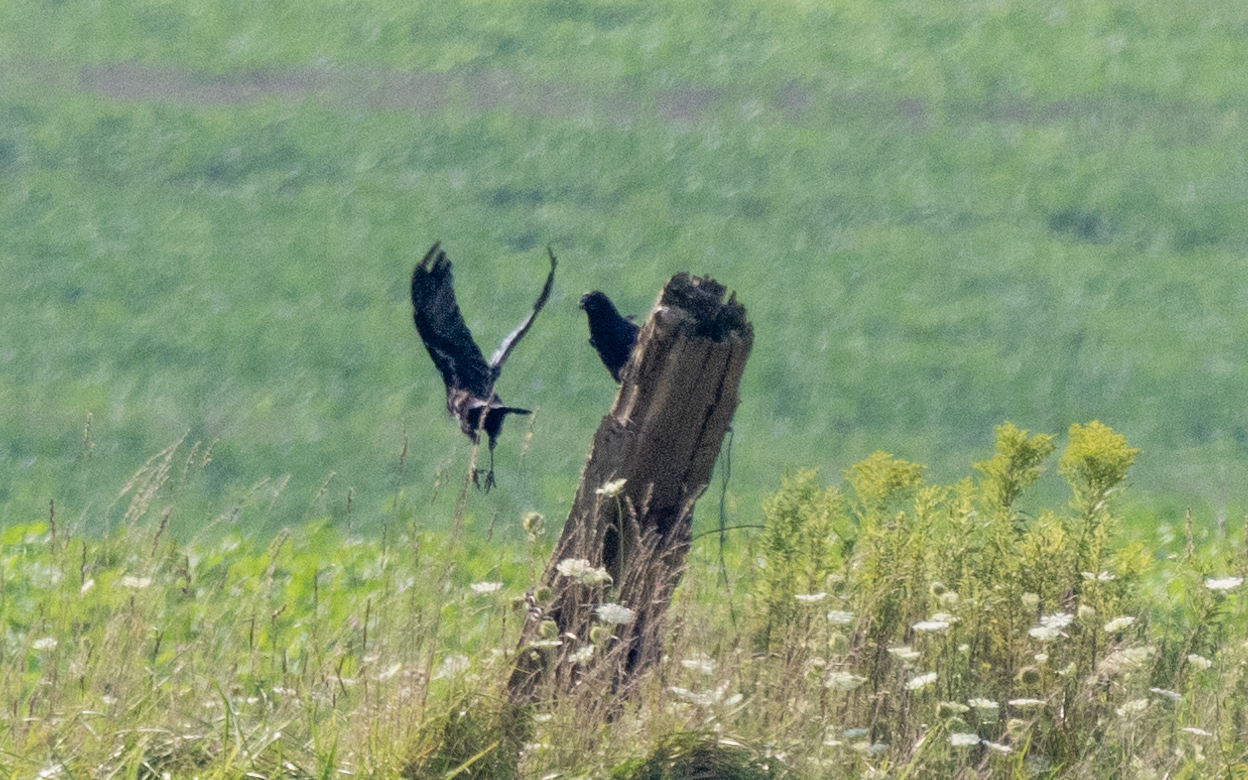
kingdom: Animalia
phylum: Chordata
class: Aves
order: Passeriformes
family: Corvidae
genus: Corvus
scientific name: Corvus brachyrhynchos
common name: American crow
